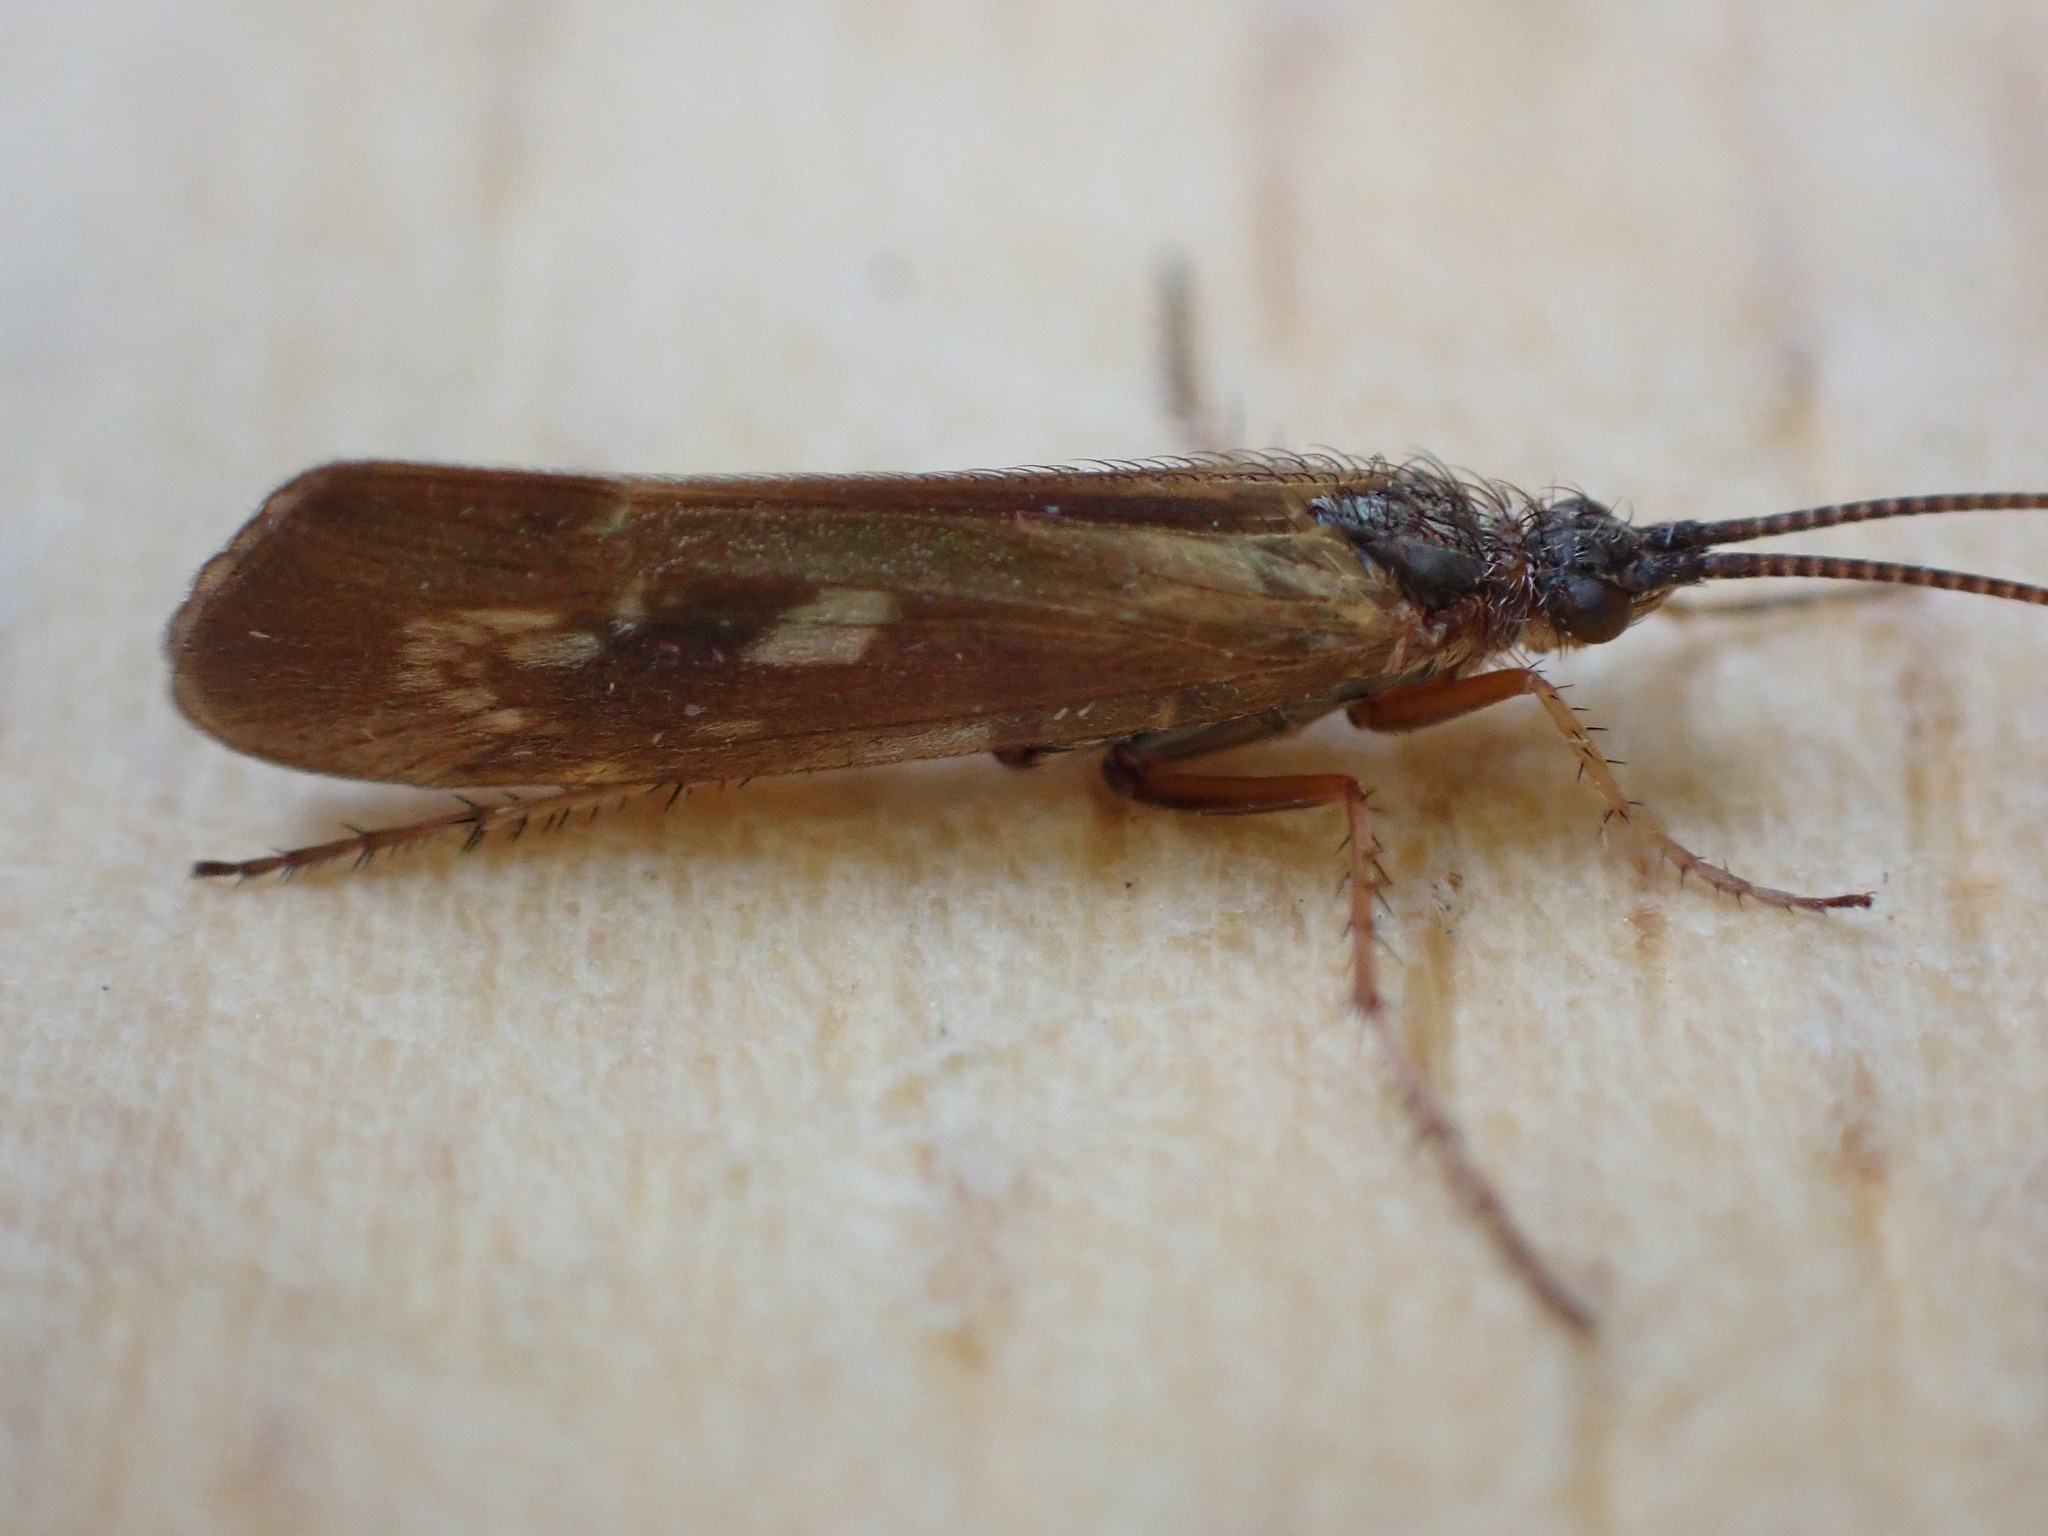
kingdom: Animalia
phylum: Arthropoda
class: Insecta
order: Trichoptera
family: Limnephilidae
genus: Limnephilus
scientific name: Limnephilus auricula
